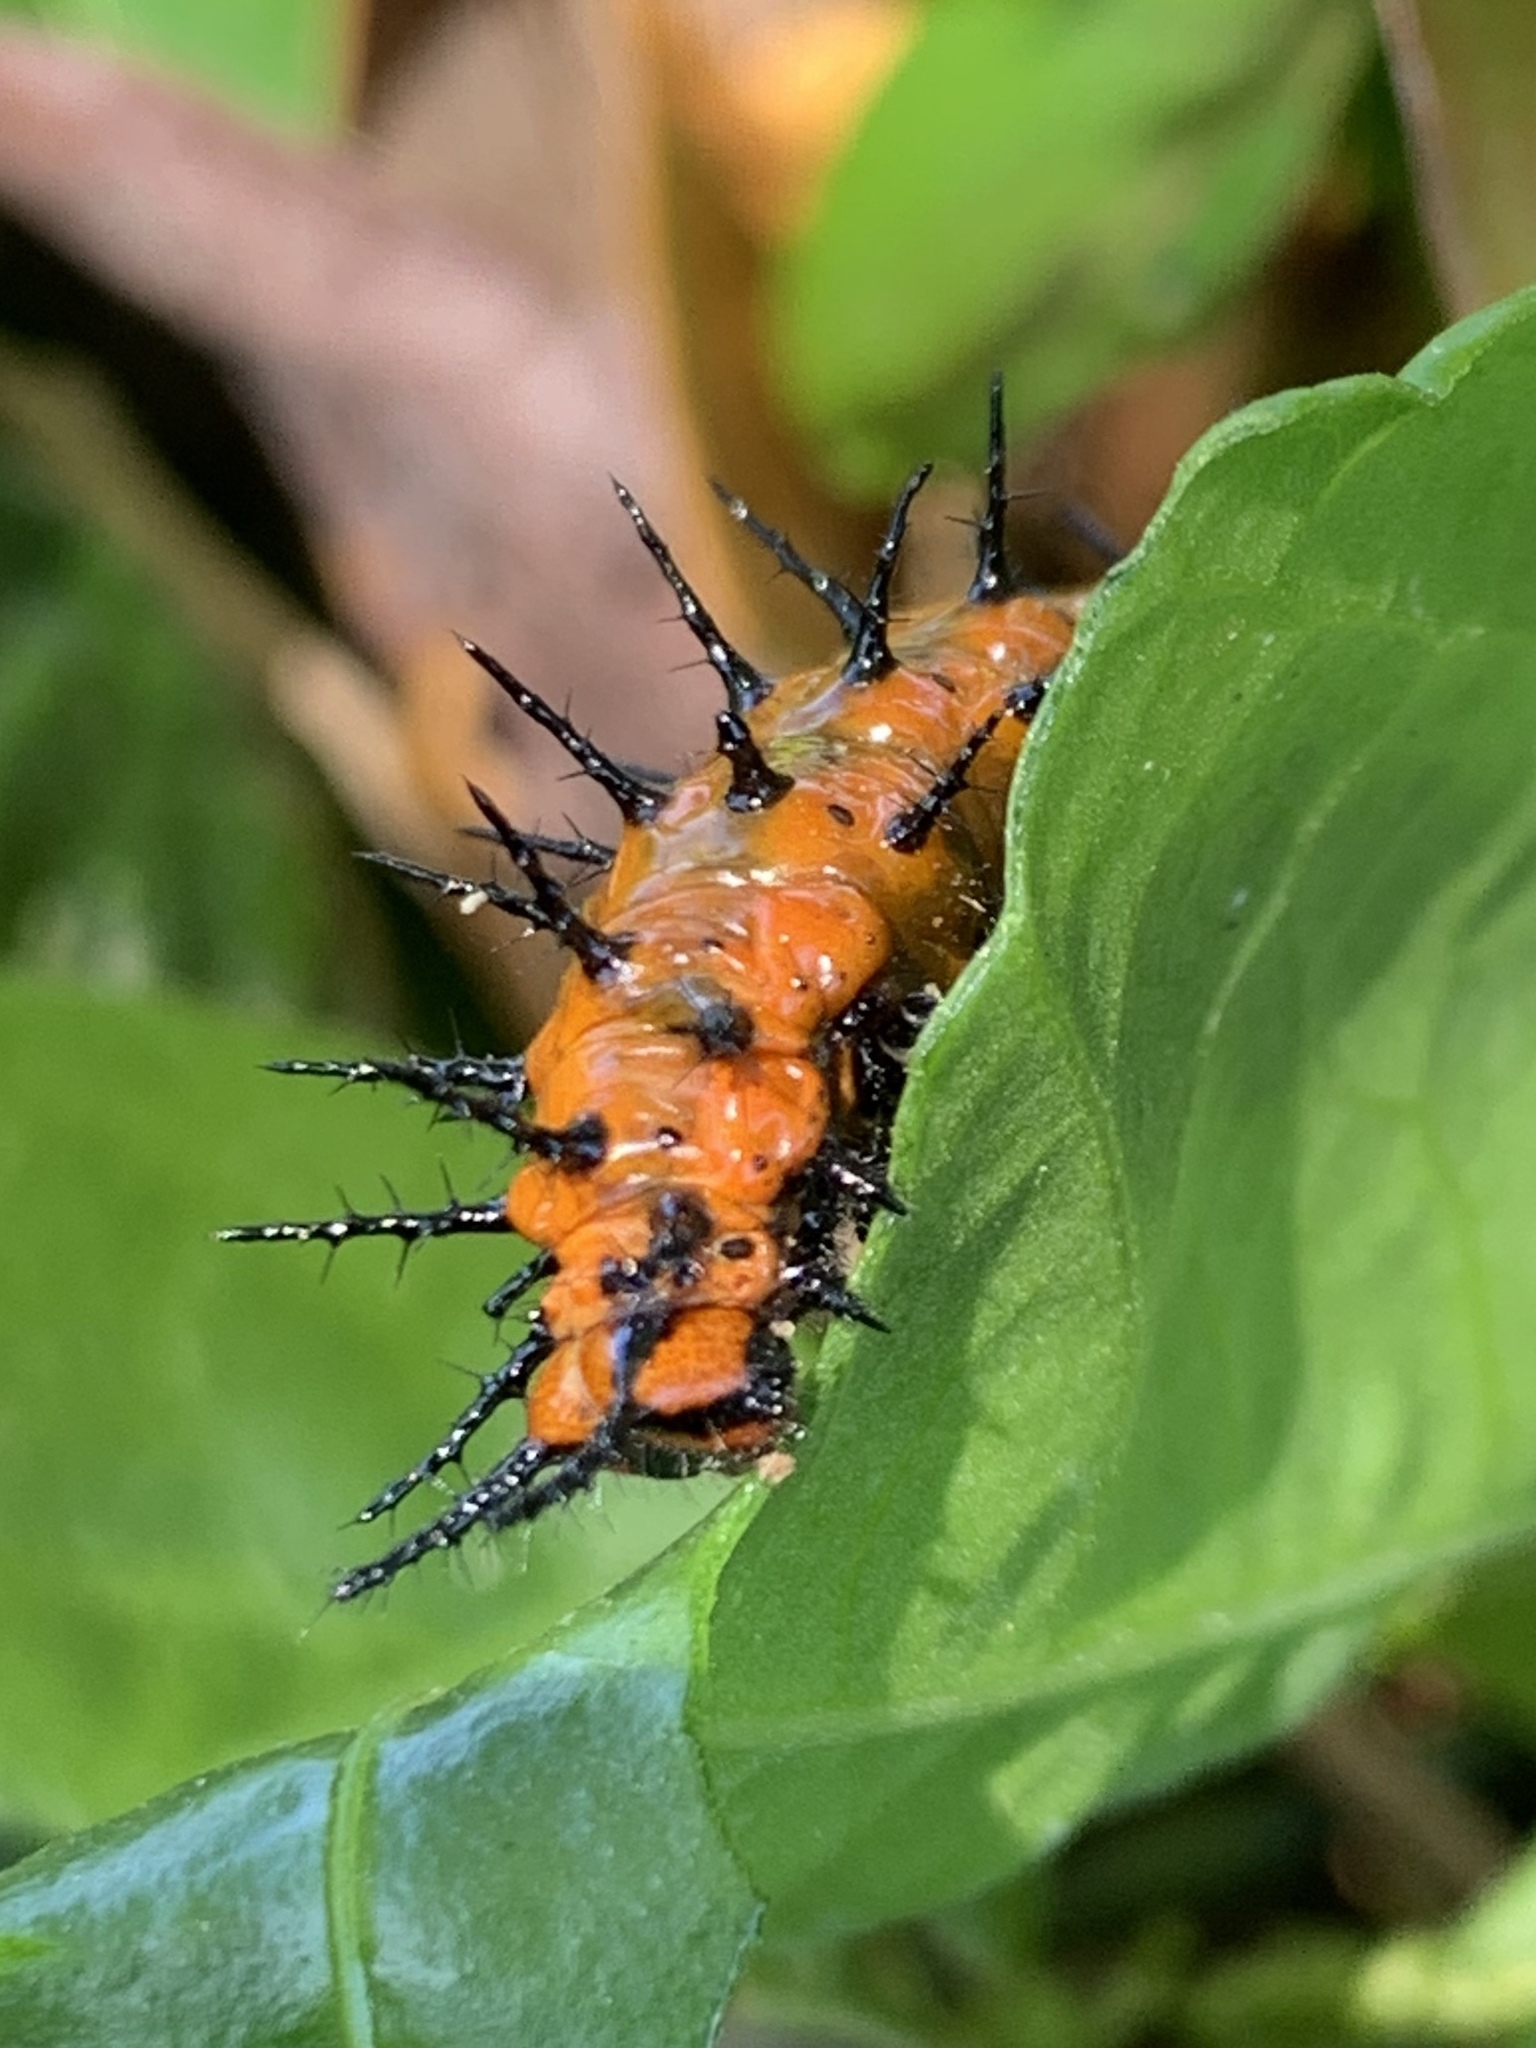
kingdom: Animalia
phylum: Arthropoda
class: Insecta
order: Lepidoptera
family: Nymphalidae
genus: Dione
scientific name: Dione vanillae
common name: Gulf fritillary
